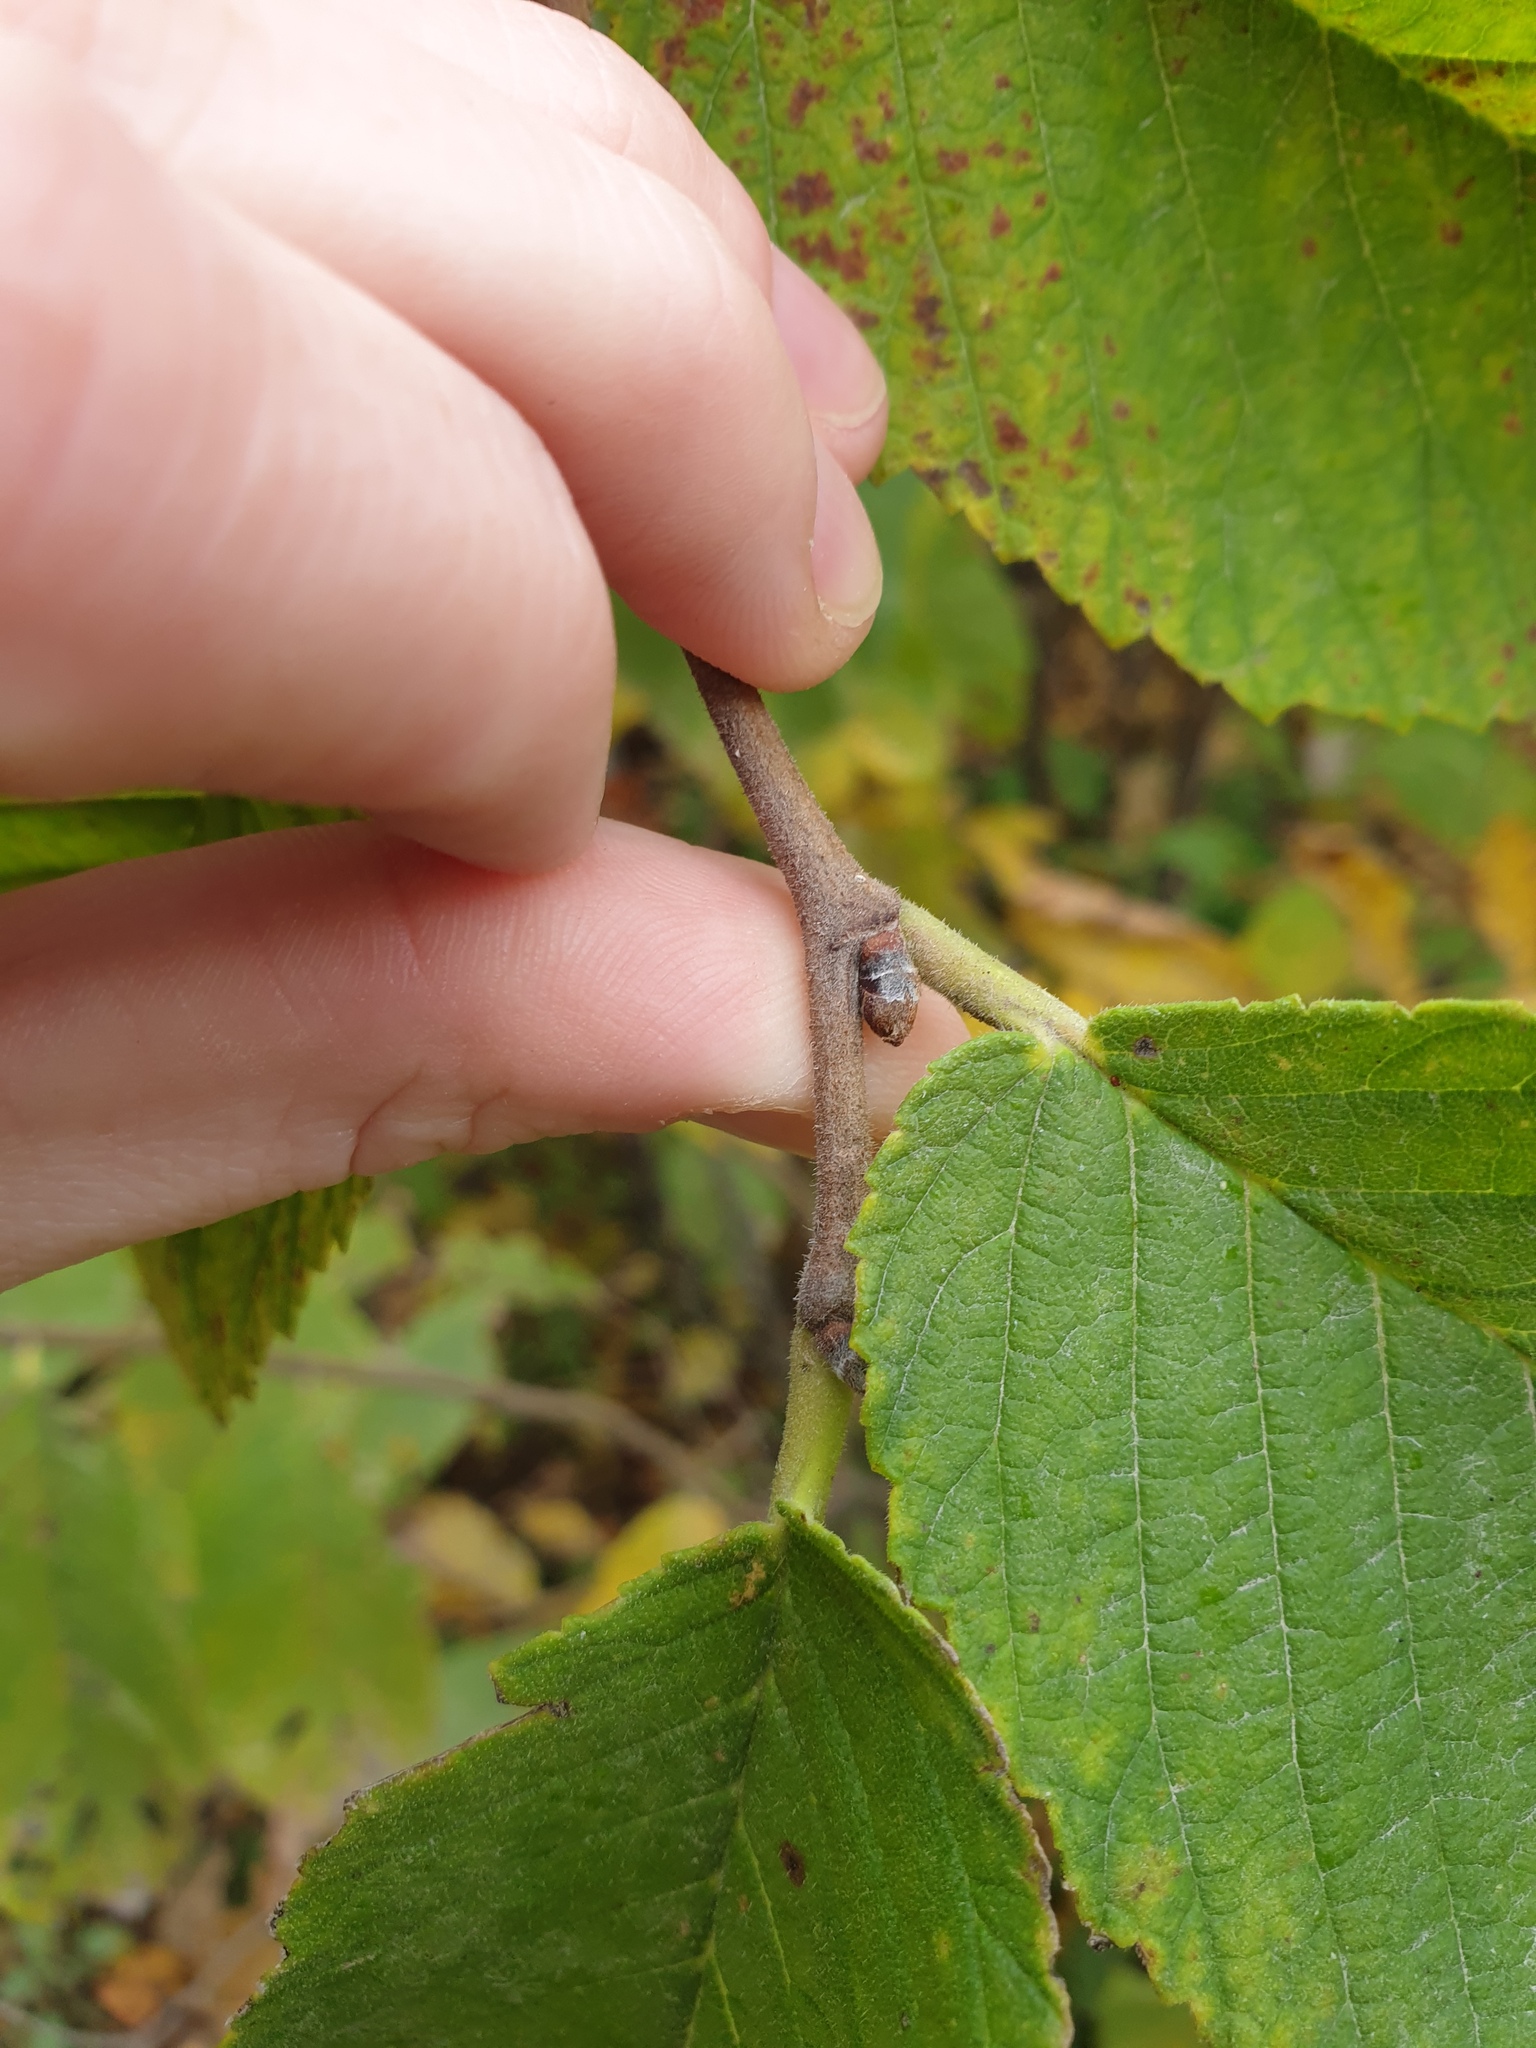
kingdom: Plantae
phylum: Tracheophyta
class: Magnoliopsida
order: Rosales
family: Ulmaceae
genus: Ulmus
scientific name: Ulmus rubra
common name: Slippery elm
